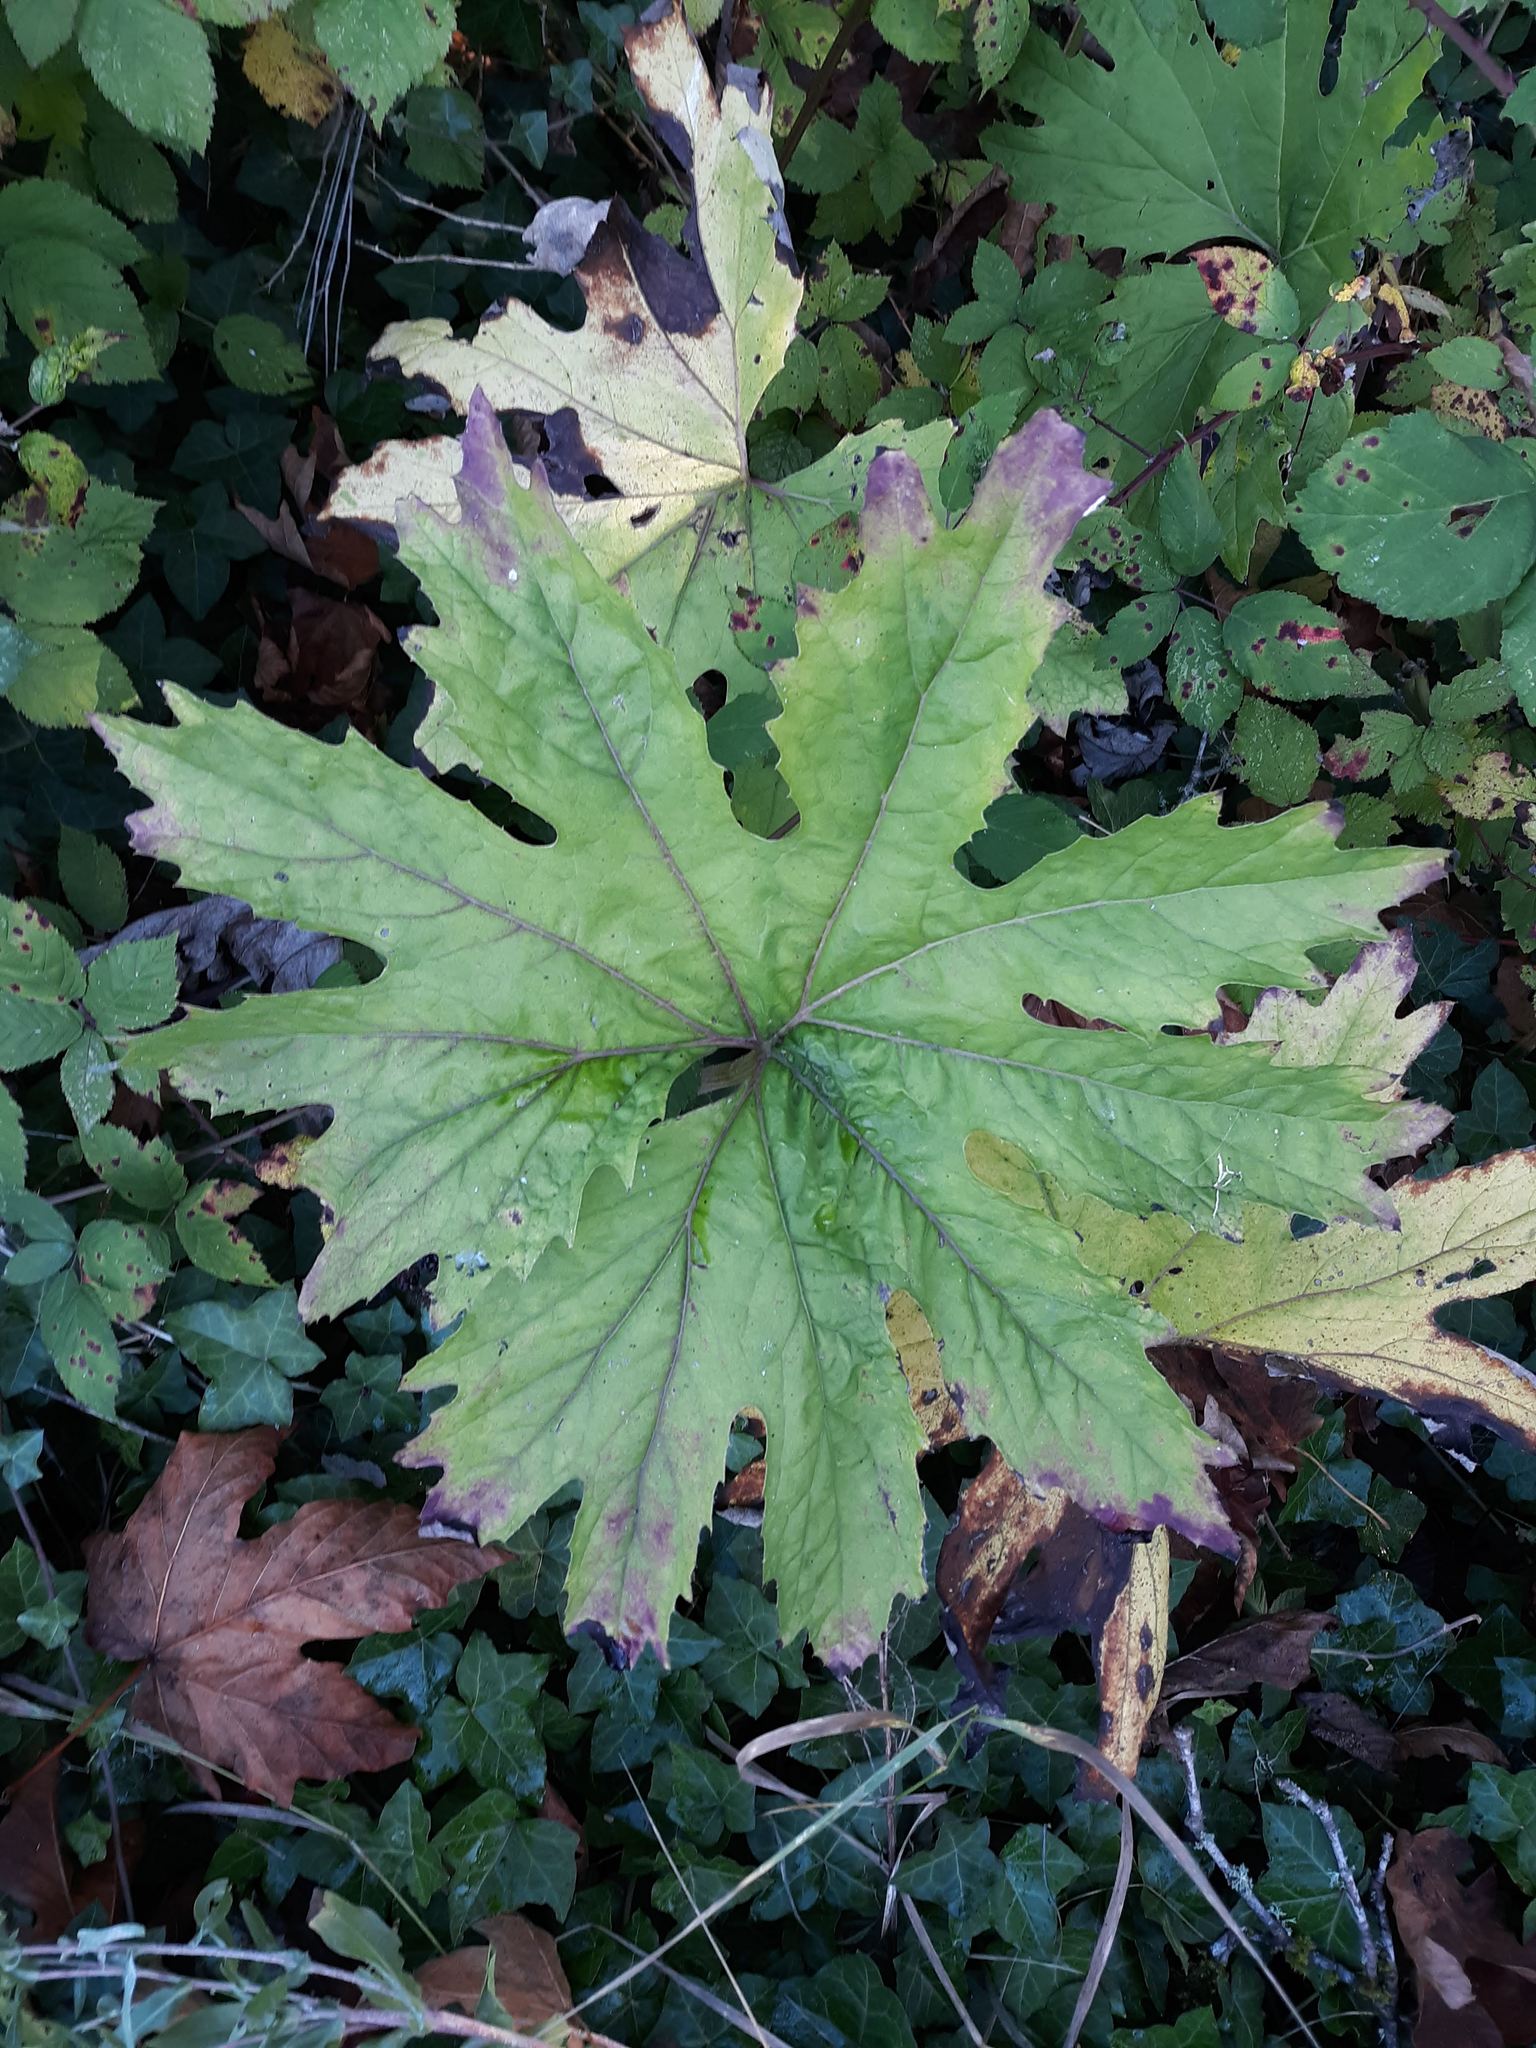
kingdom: Plantae
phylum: Tracheophyta
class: Magnoliopsida
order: Asterales
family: Asteraceae
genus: Petasites
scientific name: Petasites frigidus
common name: Arctic butterbur
